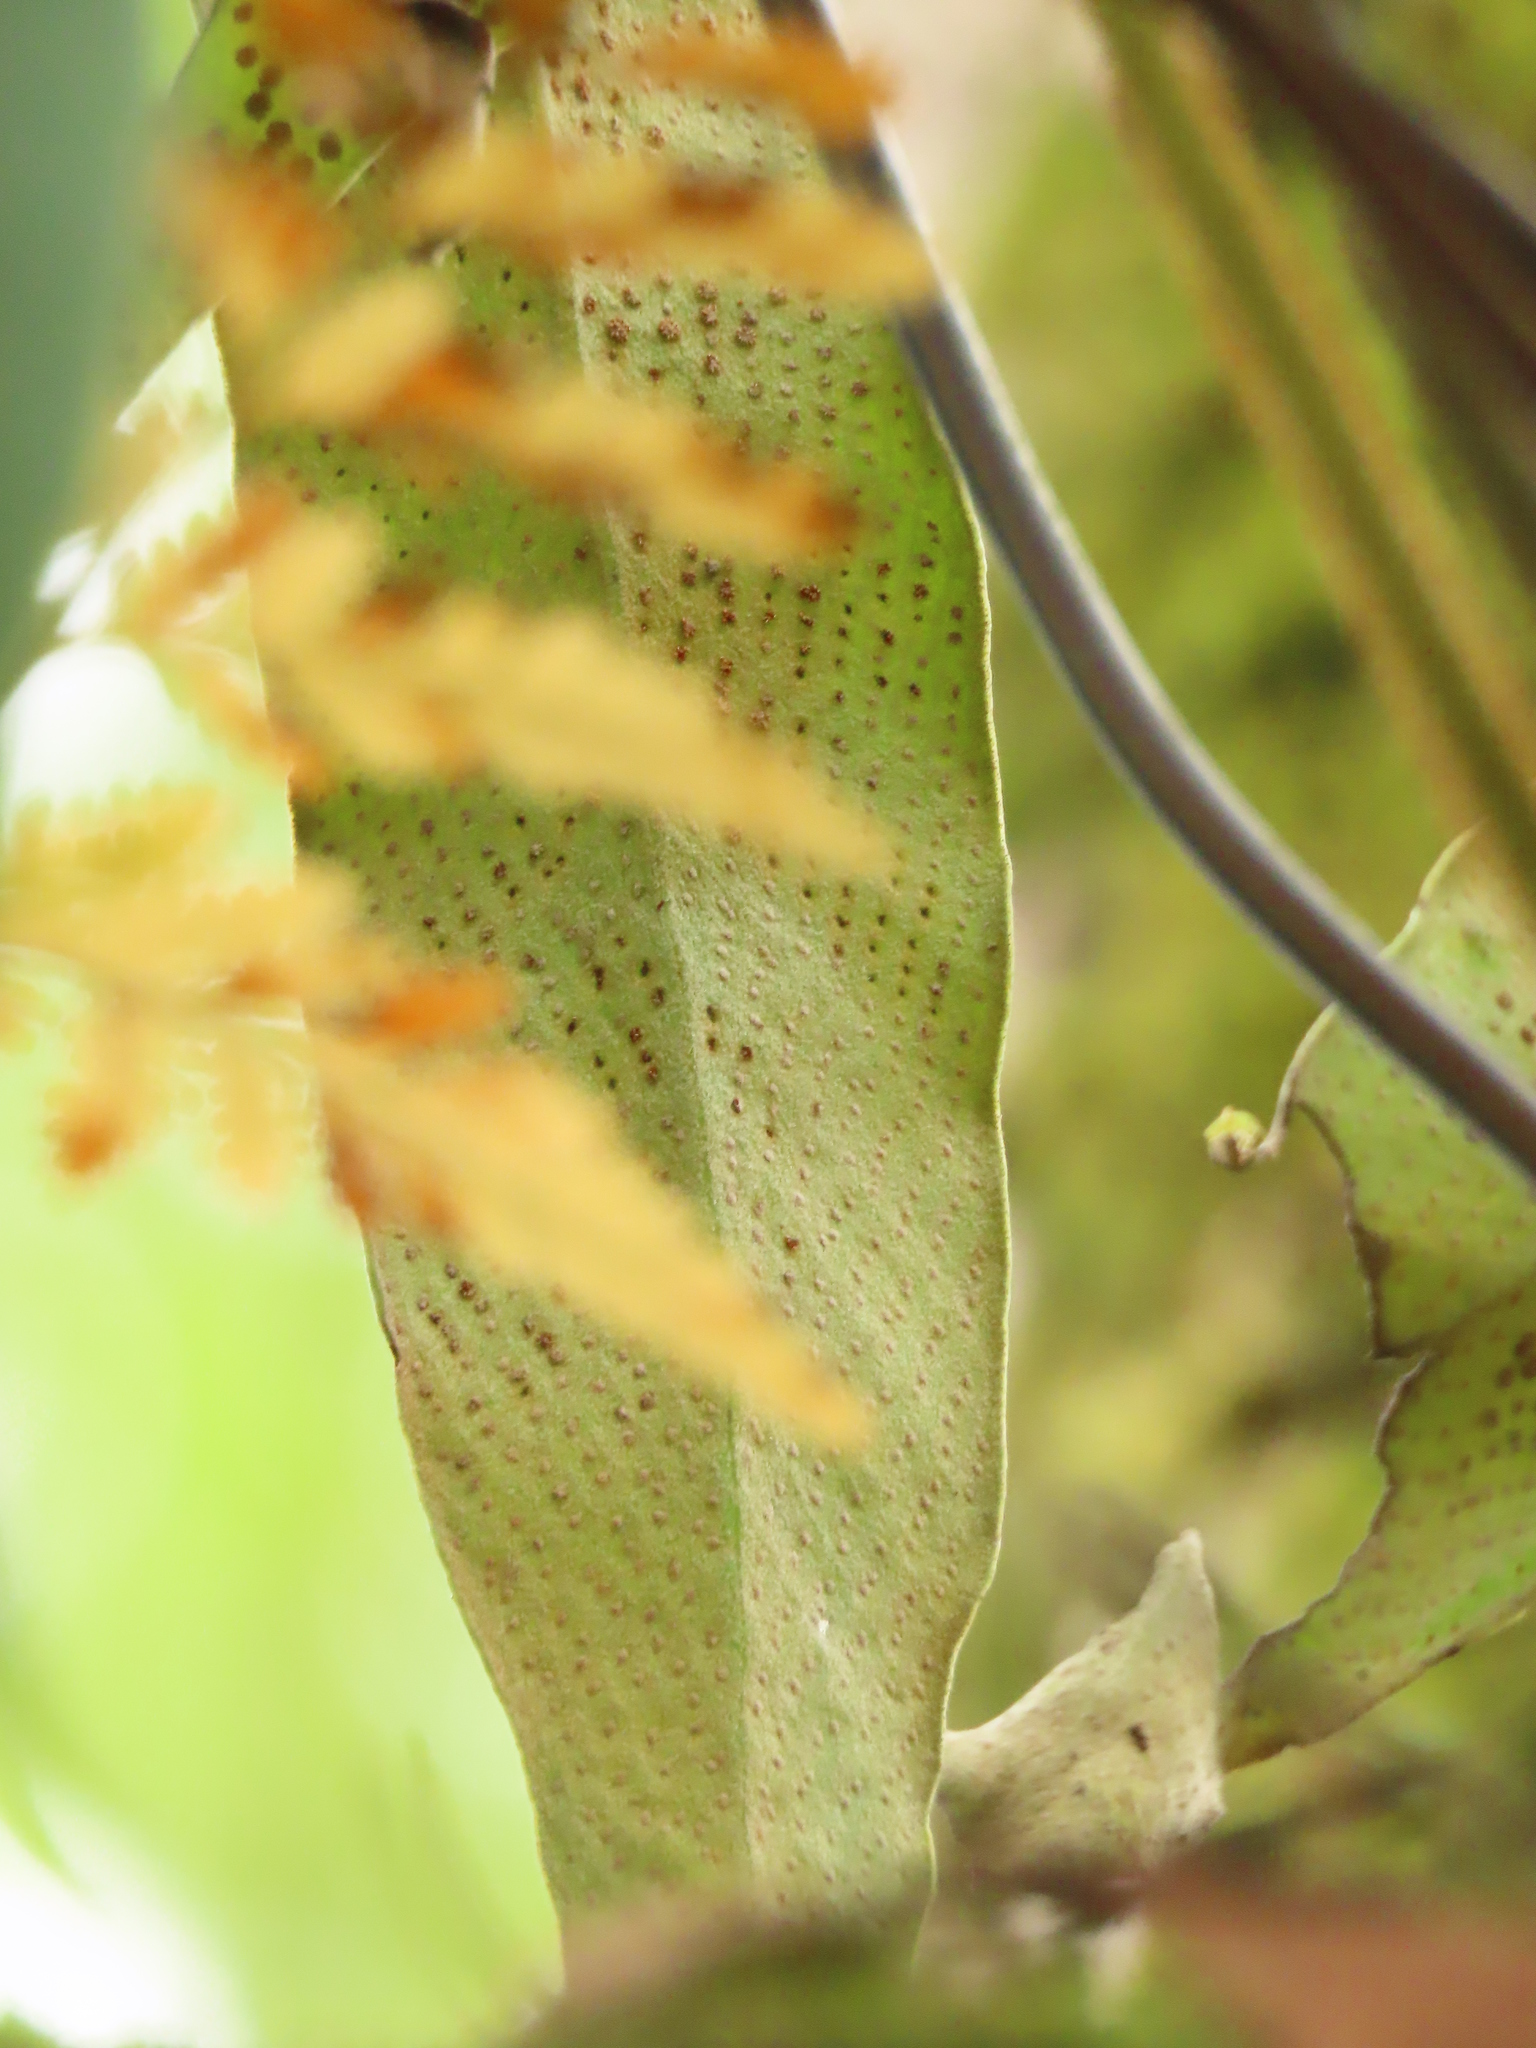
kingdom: Plantae
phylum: Tracheophyta
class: Polypodiopsida
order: Polypodiales
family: Polypodiaceae
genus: Pyrrosia
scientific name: Pyrrosia polydactyla
